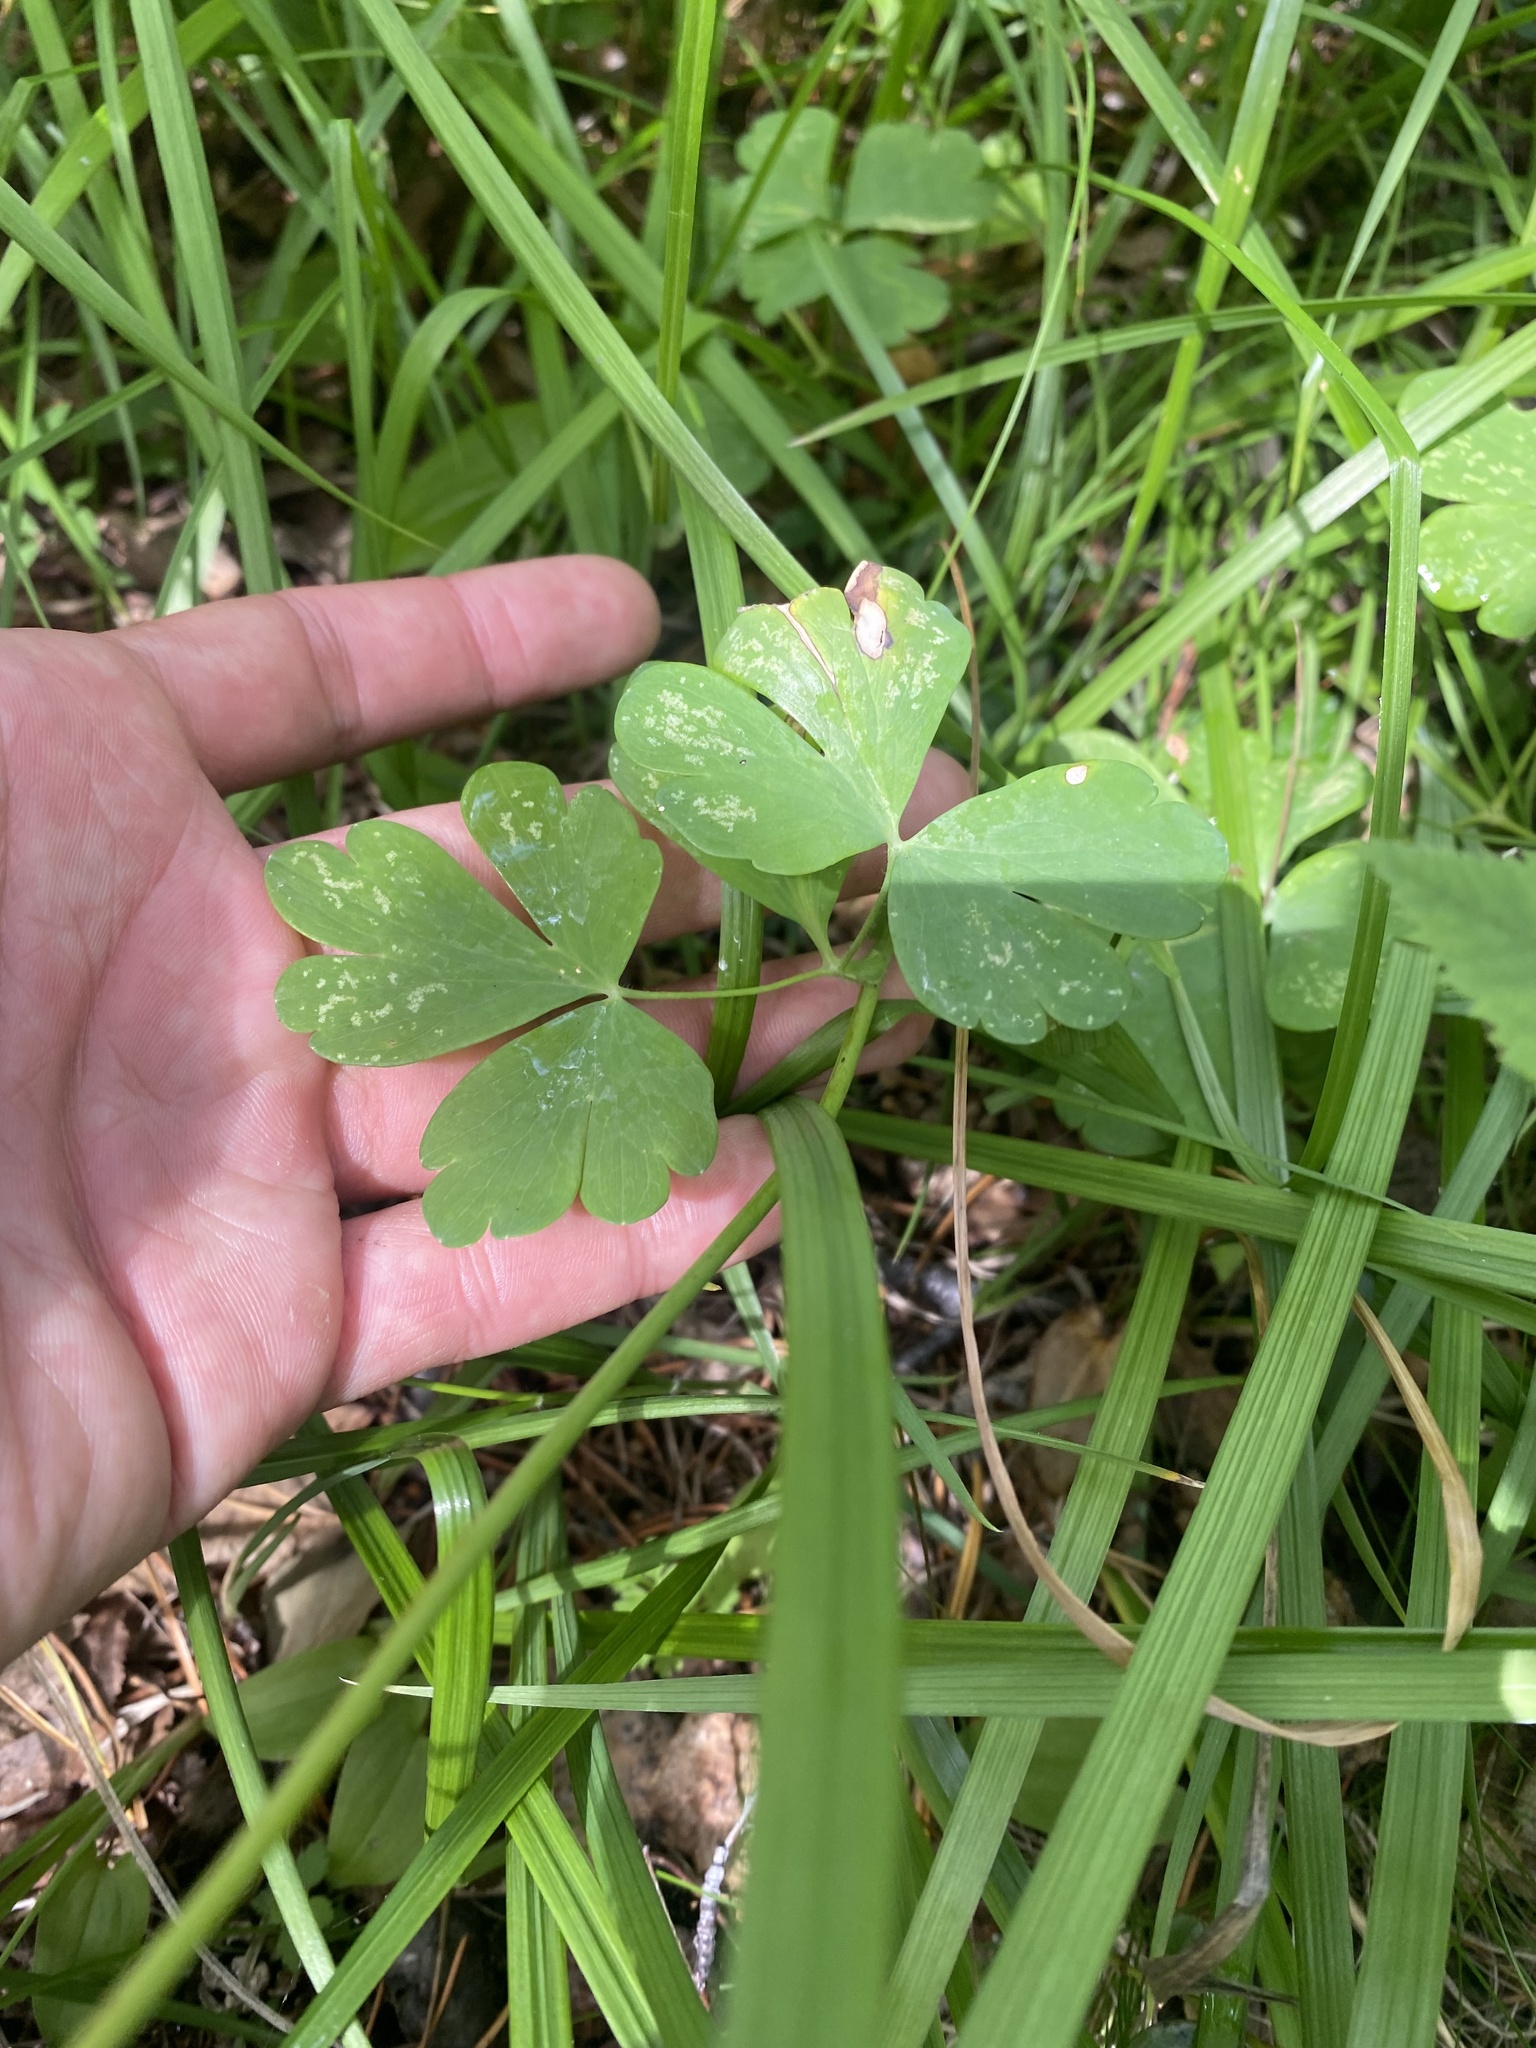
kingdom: Plantae
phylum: Tracheophyta
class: Magnoliopsida
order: Ranunculales
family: Ranunculaceae
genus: Aquilegia
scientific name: Aquilegia sibirica
